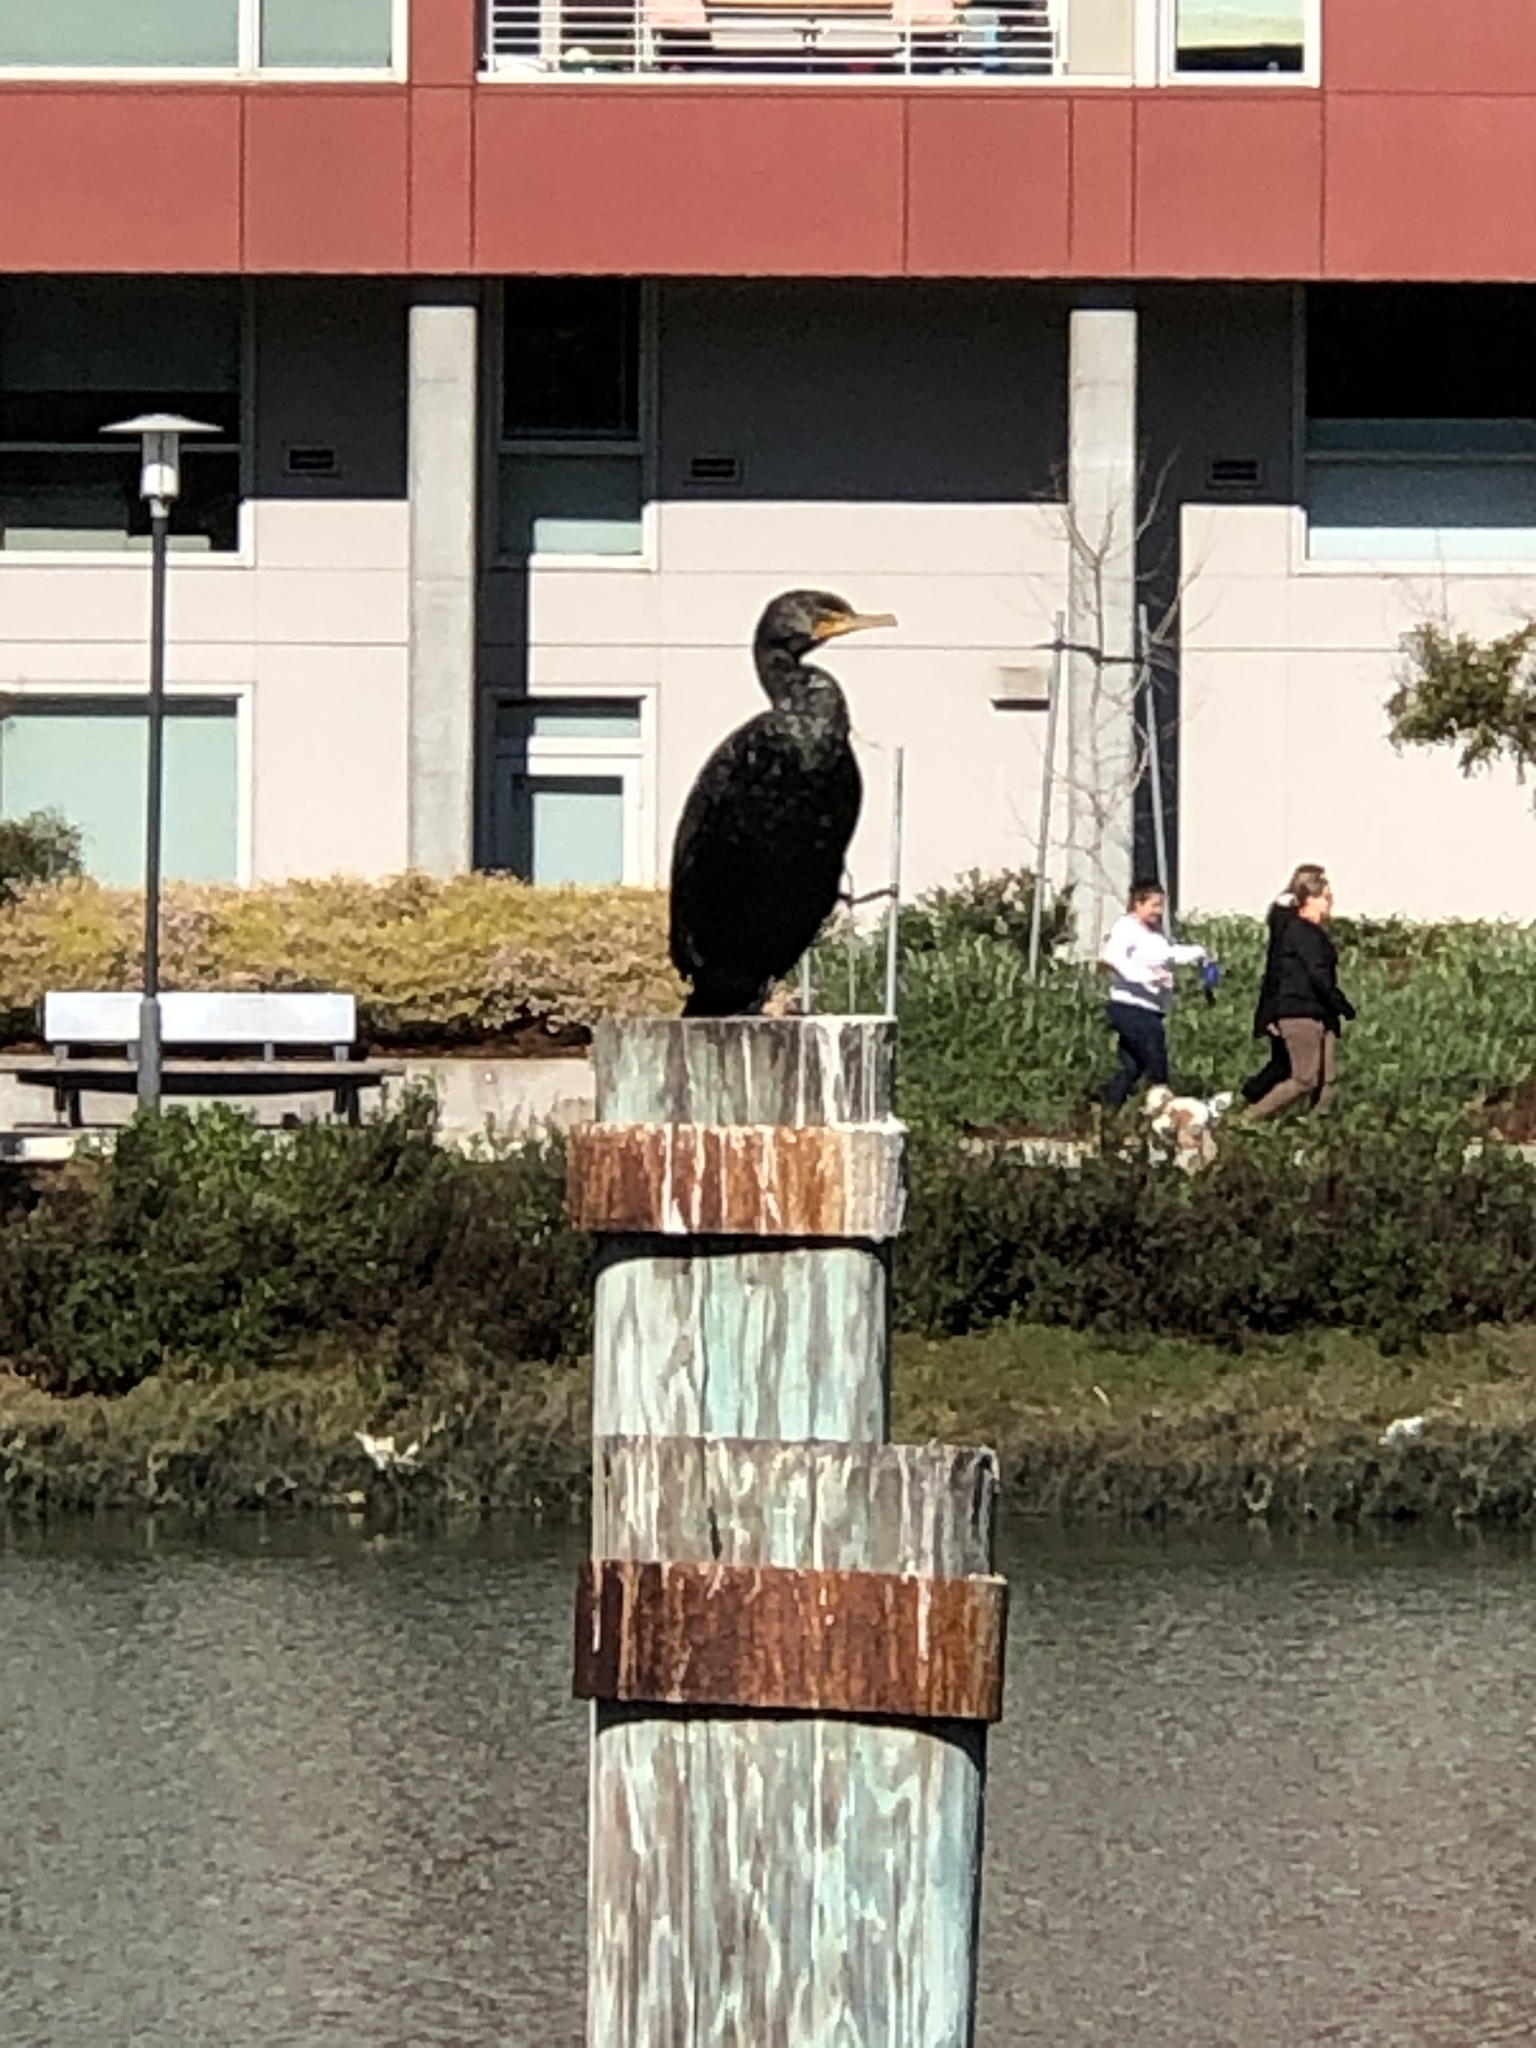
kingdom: Animalia
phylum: Chordata
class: Aves
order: Suliformes
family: Phalacrocoracidae
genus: Phalacrocorax
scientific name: Phalacrocorax auritus
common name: Double-crested cormorant
